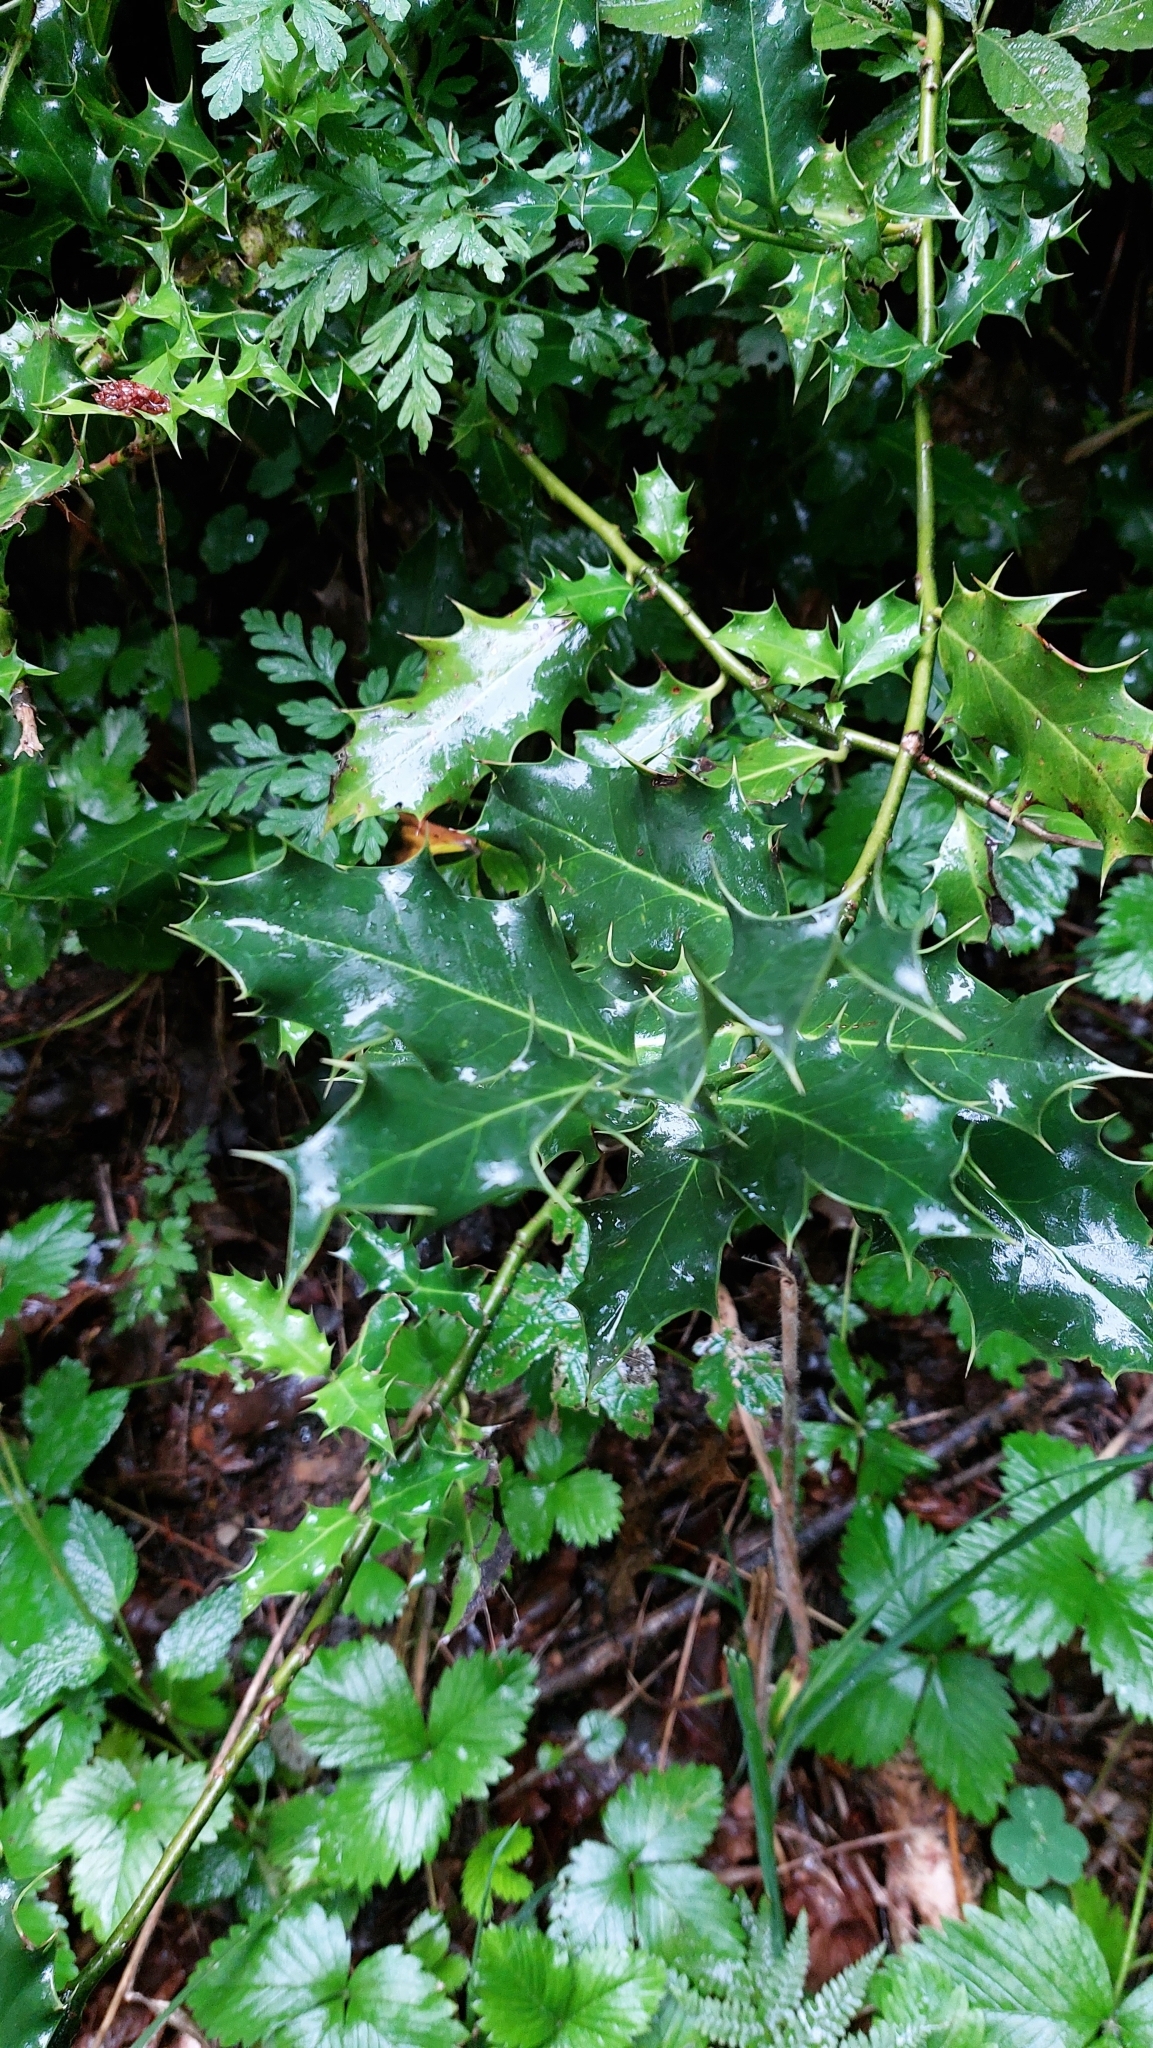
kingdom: Plantae
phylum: Tracheophyta
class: Magnoliopsida
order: Aquifoliales
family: Aquifoliaceae
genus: Ilex
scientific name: Ilex aquifolium
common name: English holly
